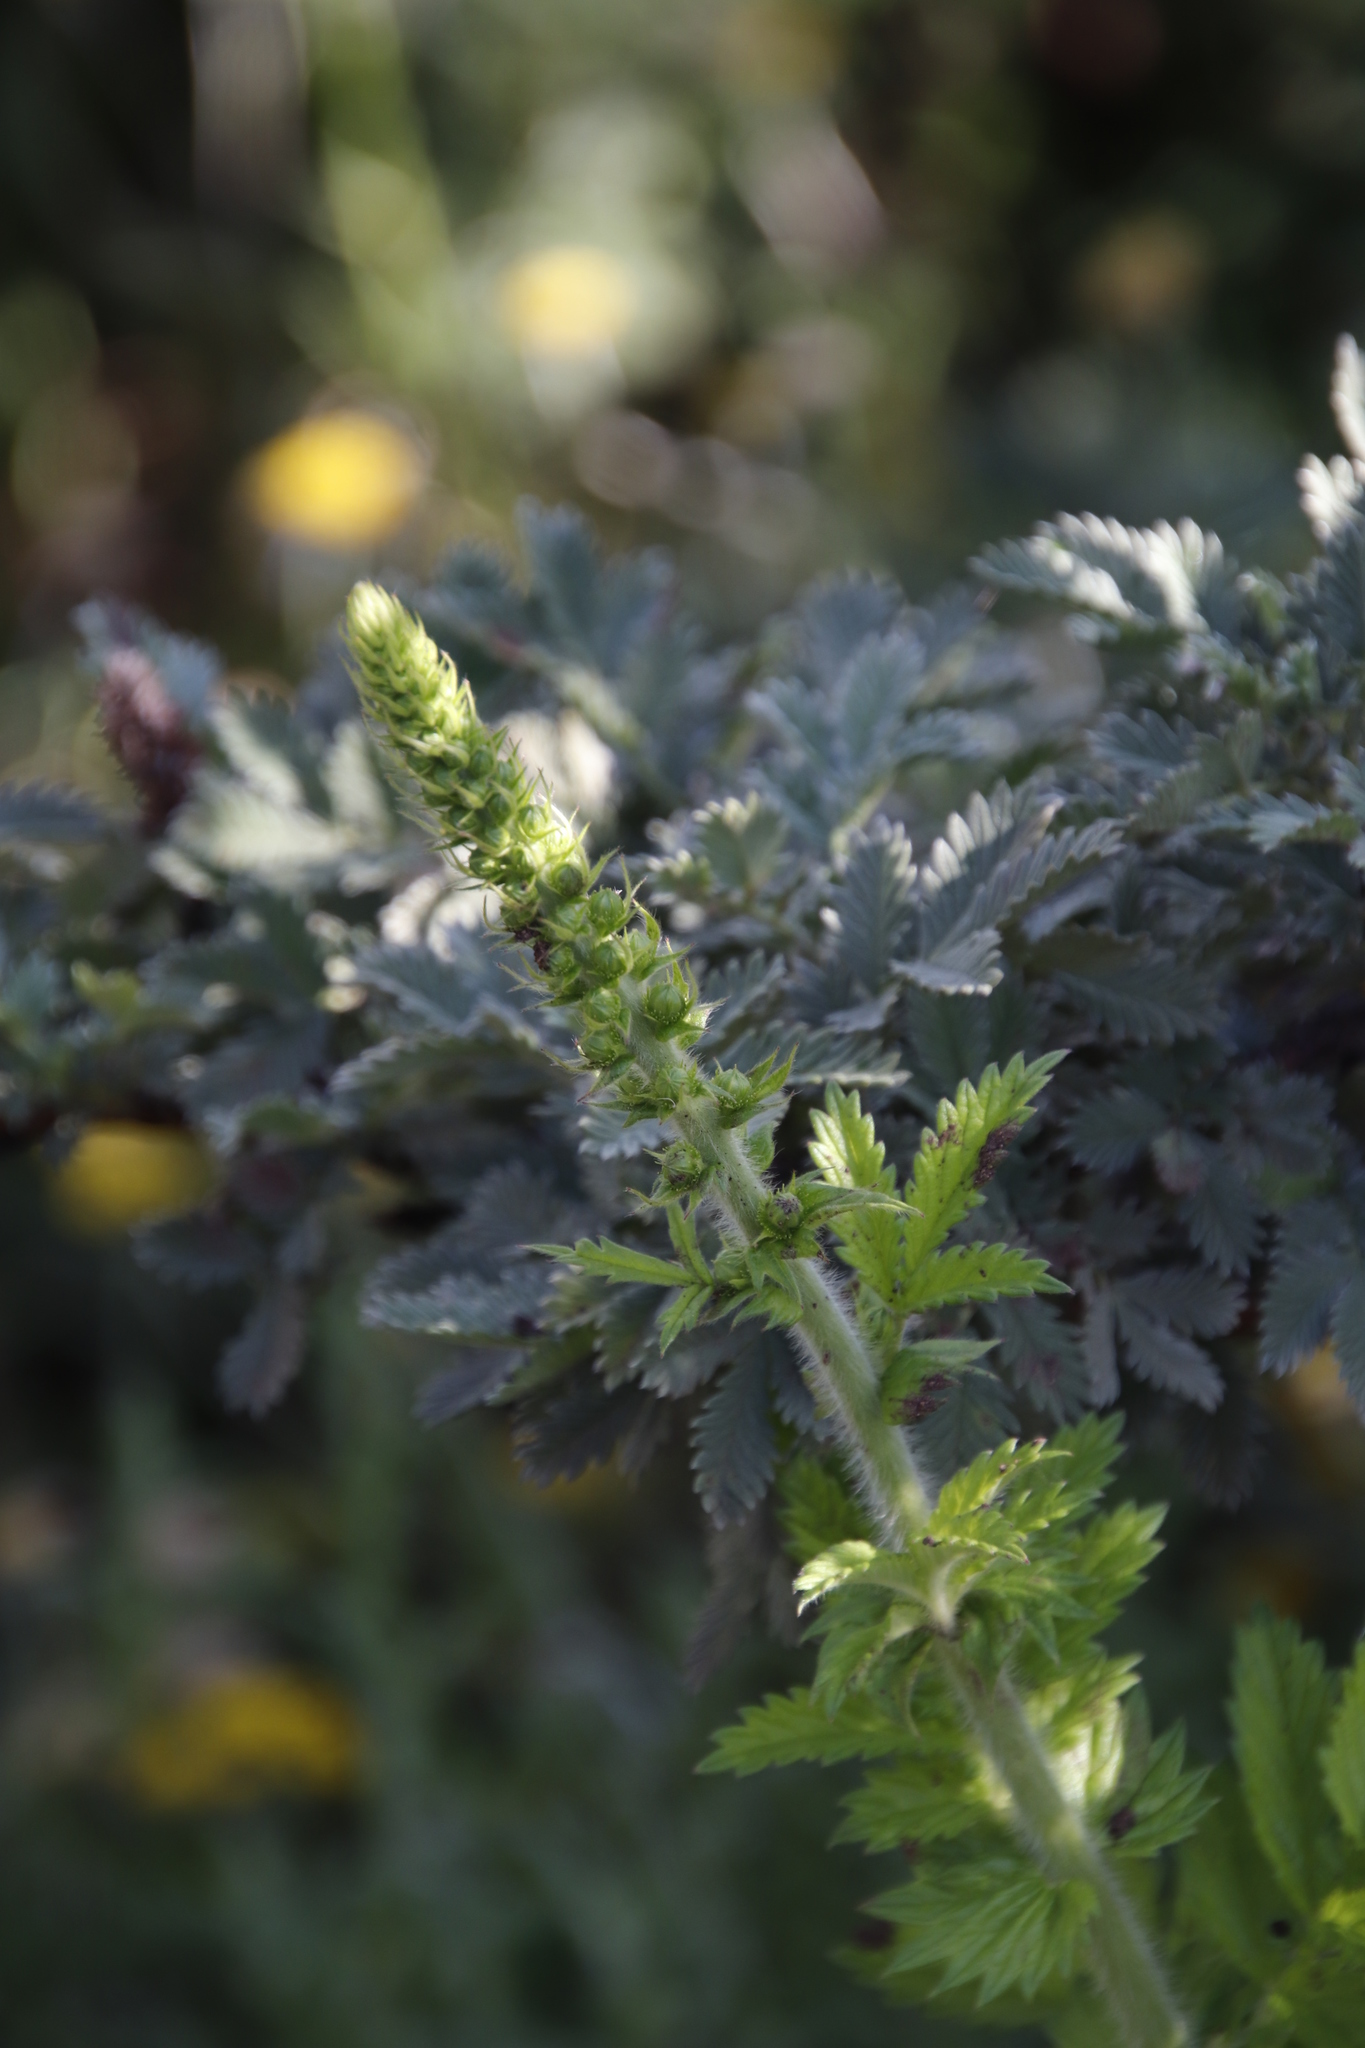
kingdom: Plantae
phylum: Tracheophyta
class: Magnoliopsida
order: Rosales
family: Rosaceae
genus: Leucosidea
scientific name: Leucosidea sericea
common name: Oldwood
